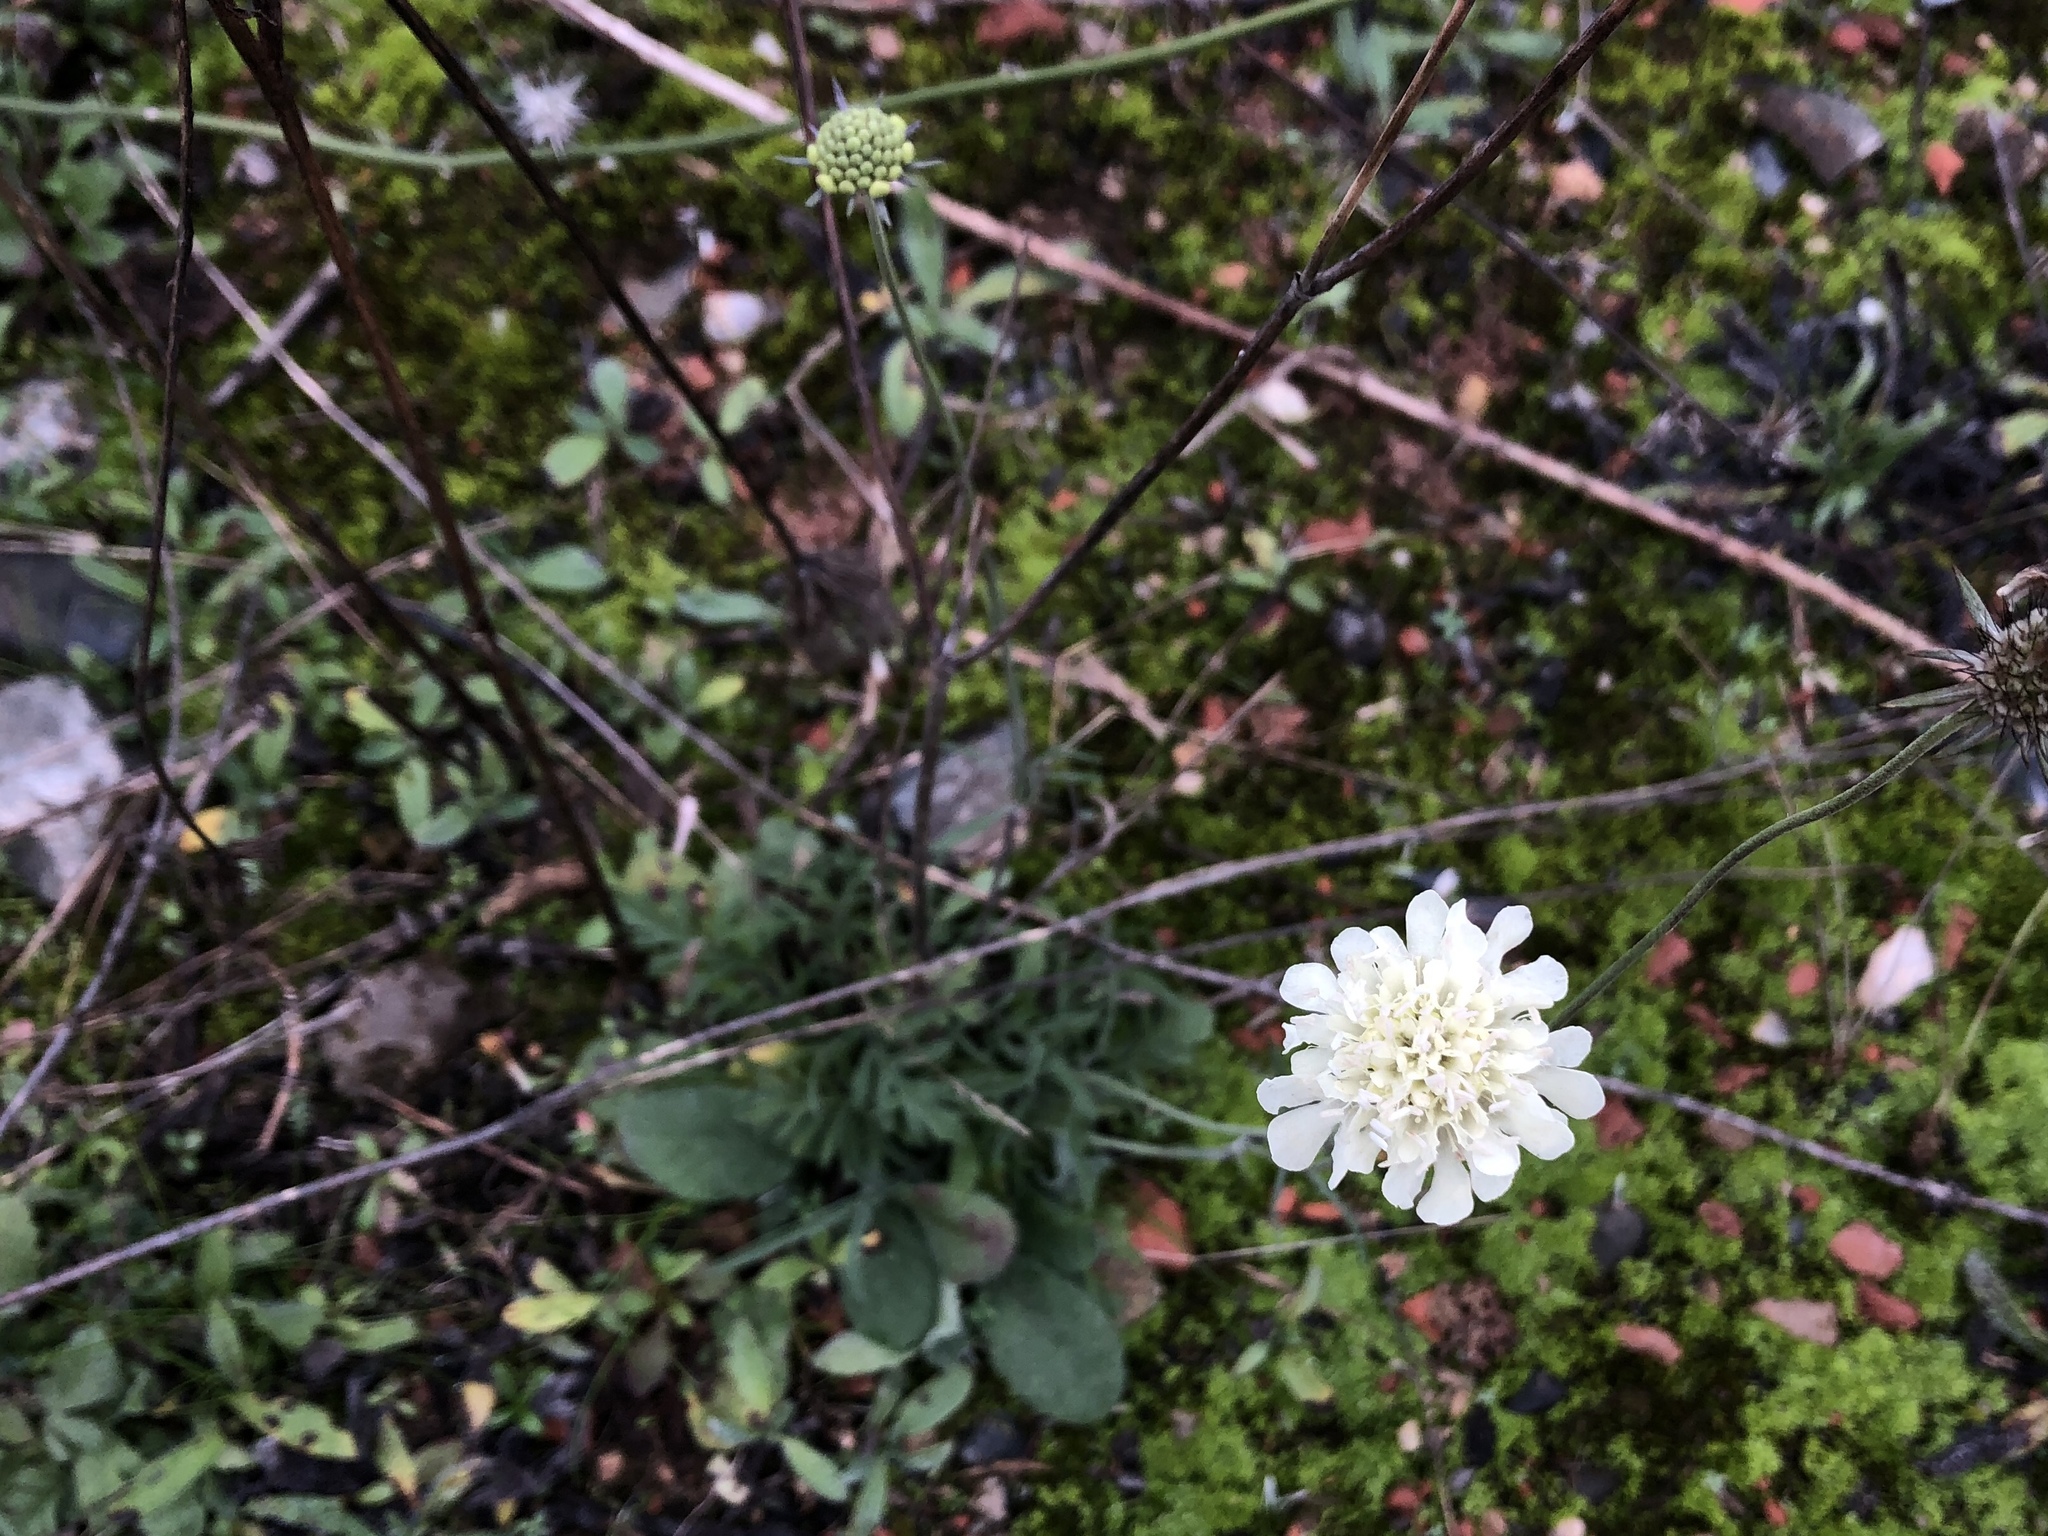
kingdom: Plantae
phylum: Tracheophyta
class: Magnoliopsida
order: Dipsacales
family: Caprifoliaceae
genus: Scabiosa
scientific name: Scabiosa ochroleuca
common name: Cream pincushions
